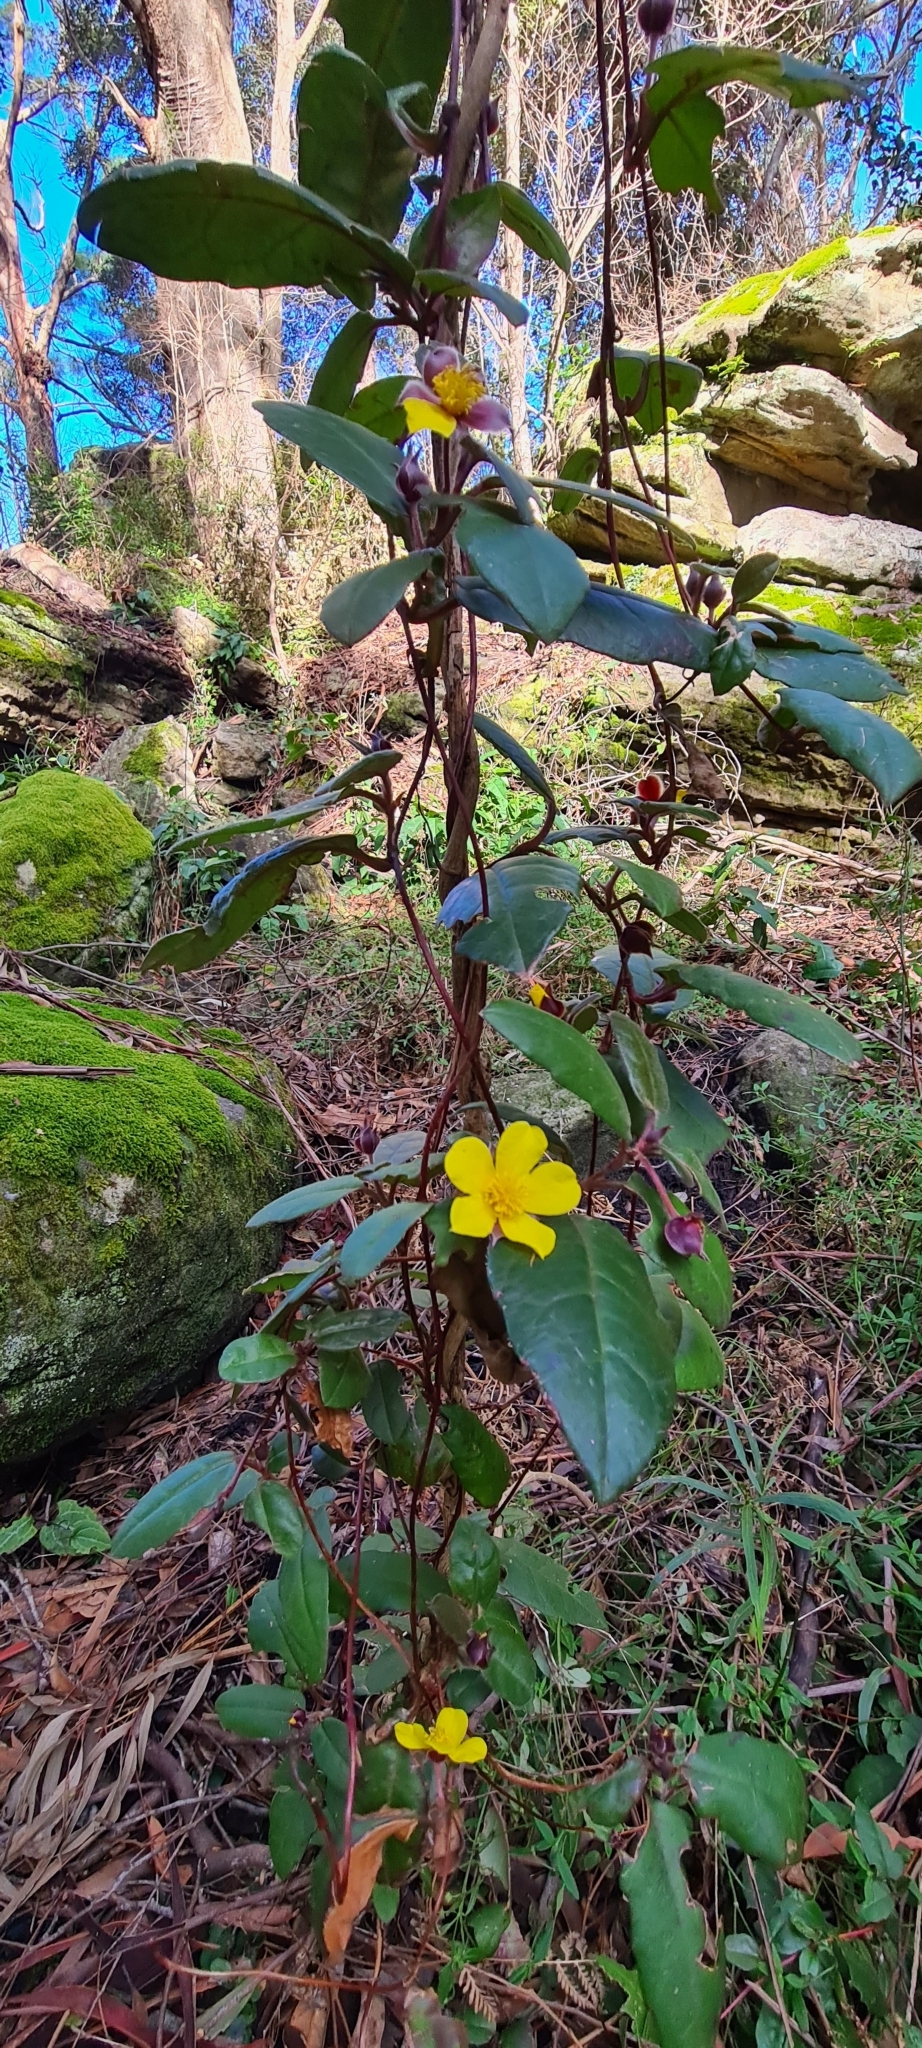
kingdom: Plantae
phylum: Tracheophyta
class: Magnoliopsida
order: Dilleniales
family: Dilleniaceae
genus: Hibbertia
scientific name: Hibbertia dentata
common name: Trailing guinea-flower
